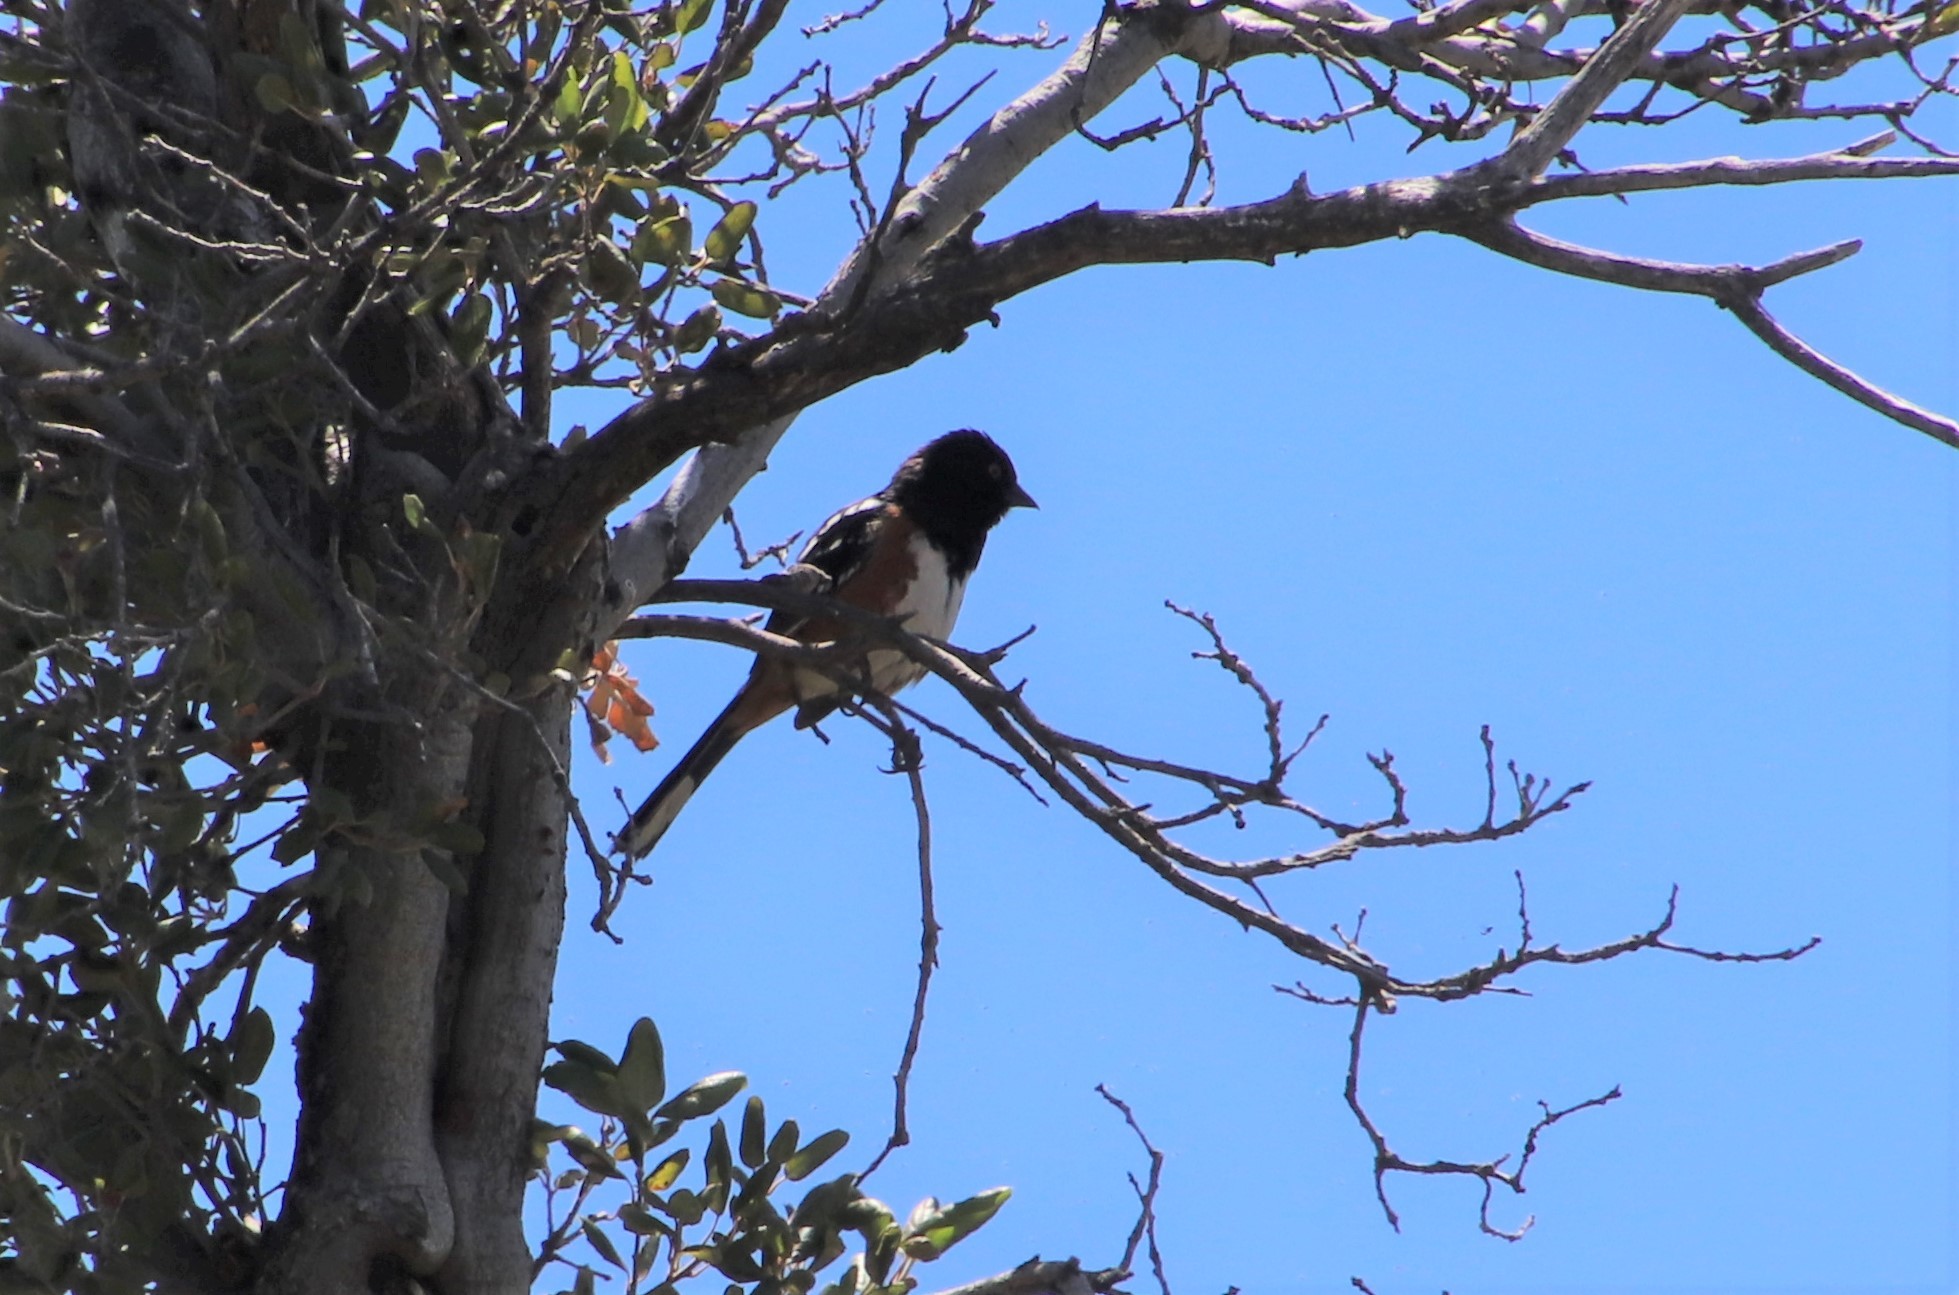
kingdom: Animalia
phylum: Chordata
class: Aves
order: Passeriformes
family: Passerellidae
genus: Pipilo
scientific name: Pipilo maculatus
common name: Spotted towhee
